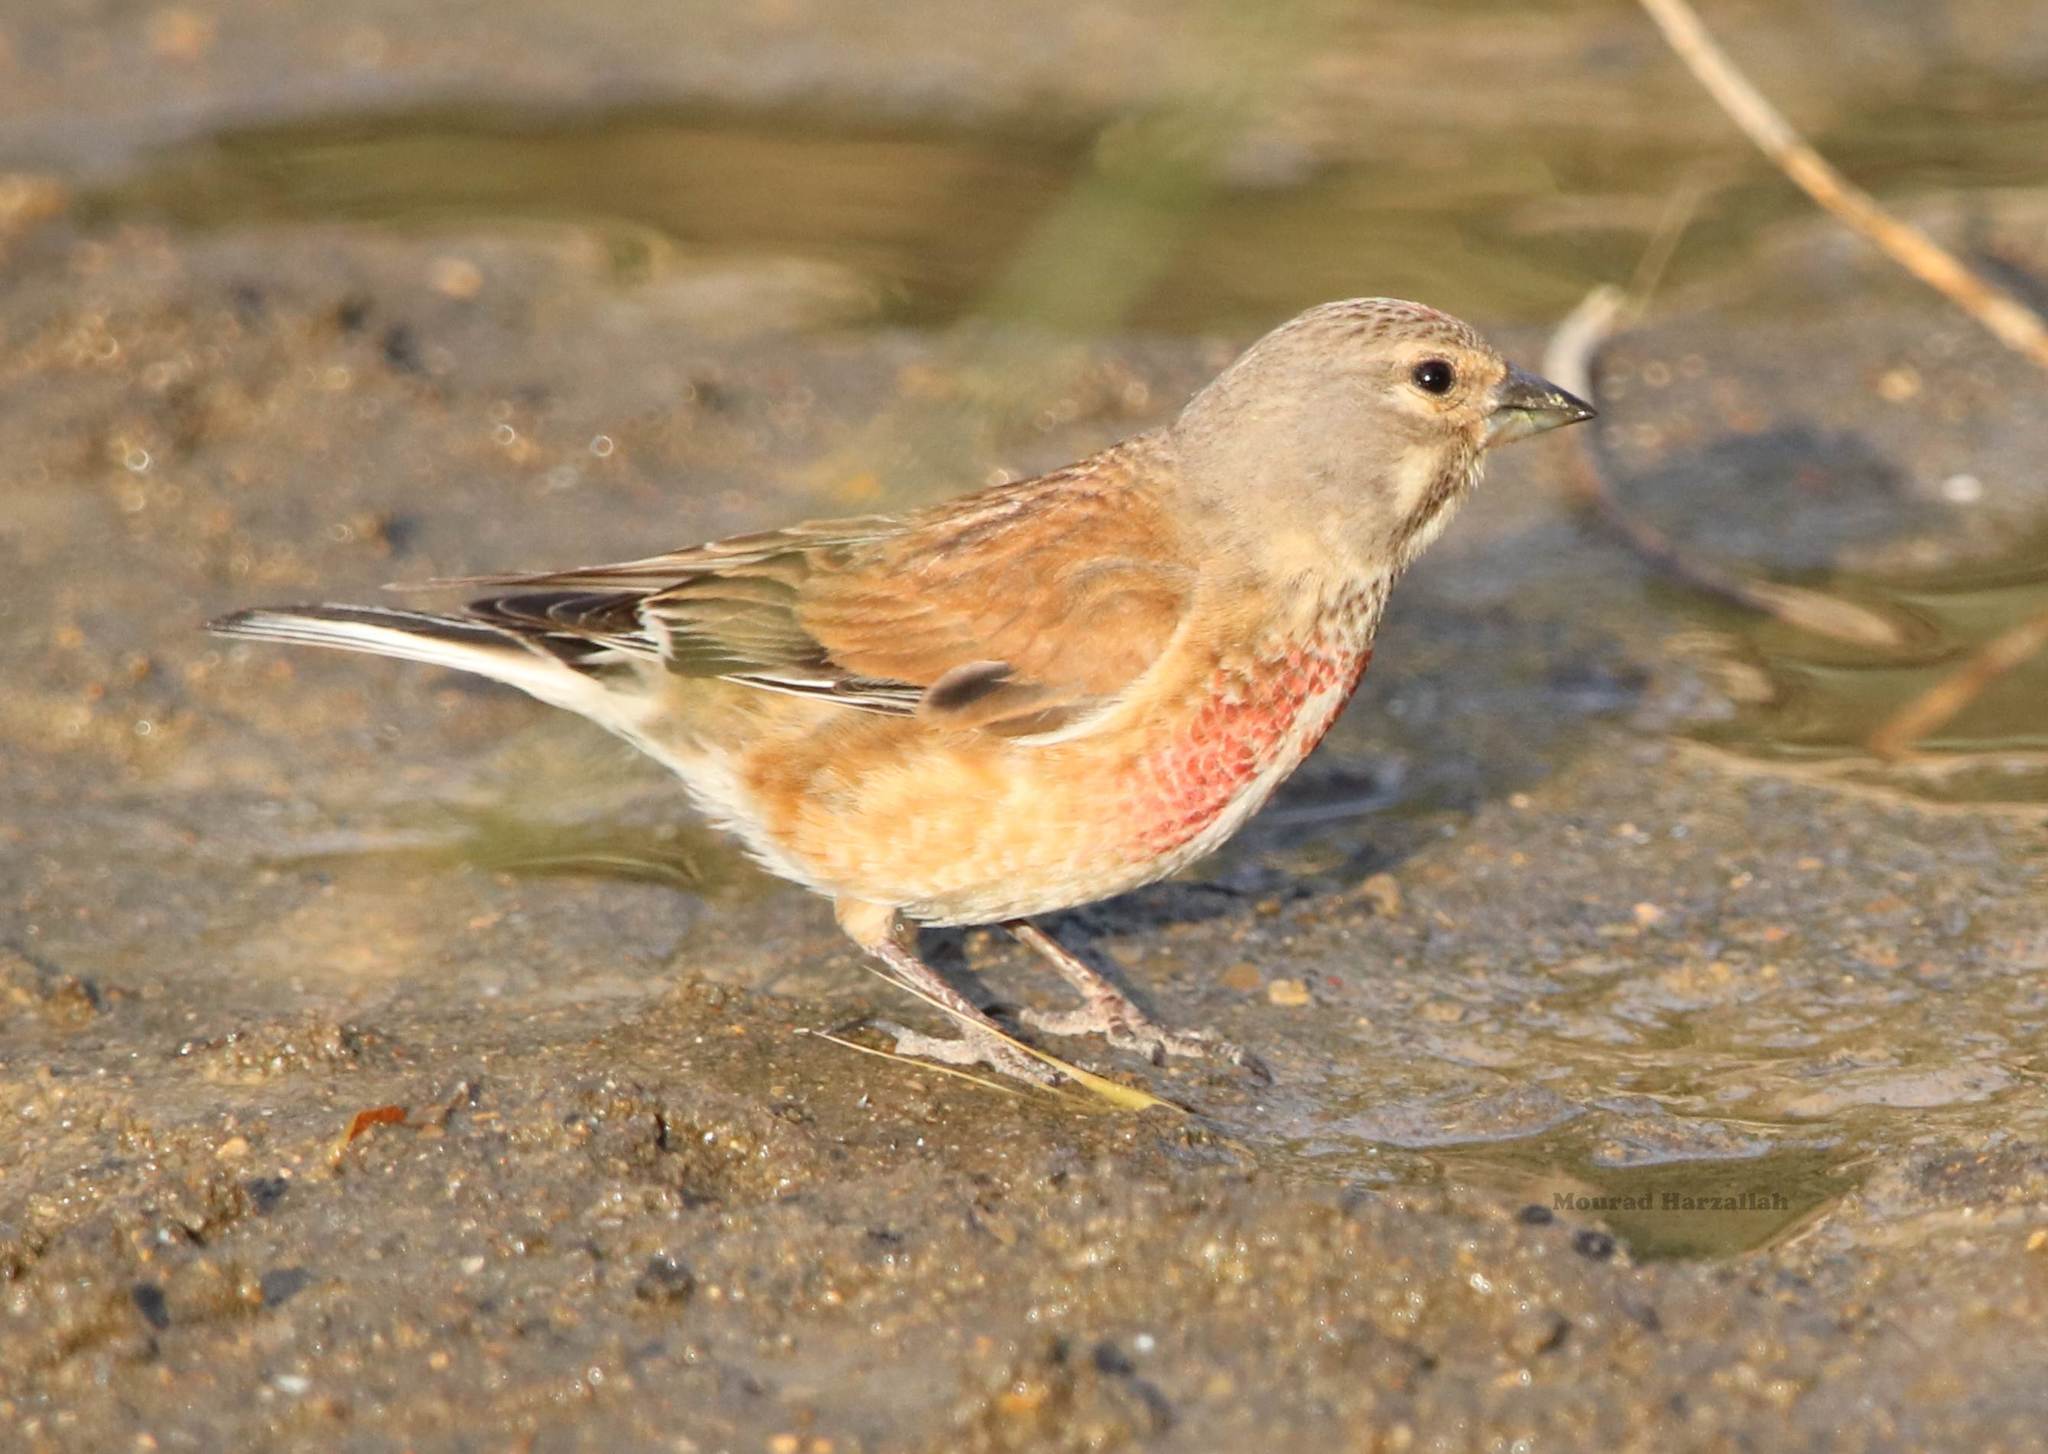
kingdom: Animalia
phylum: Chordata
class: Aves
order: Passeriformes
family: Fringillidae
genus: Linaria
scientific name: Linaria cannabina
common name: Common linnet
